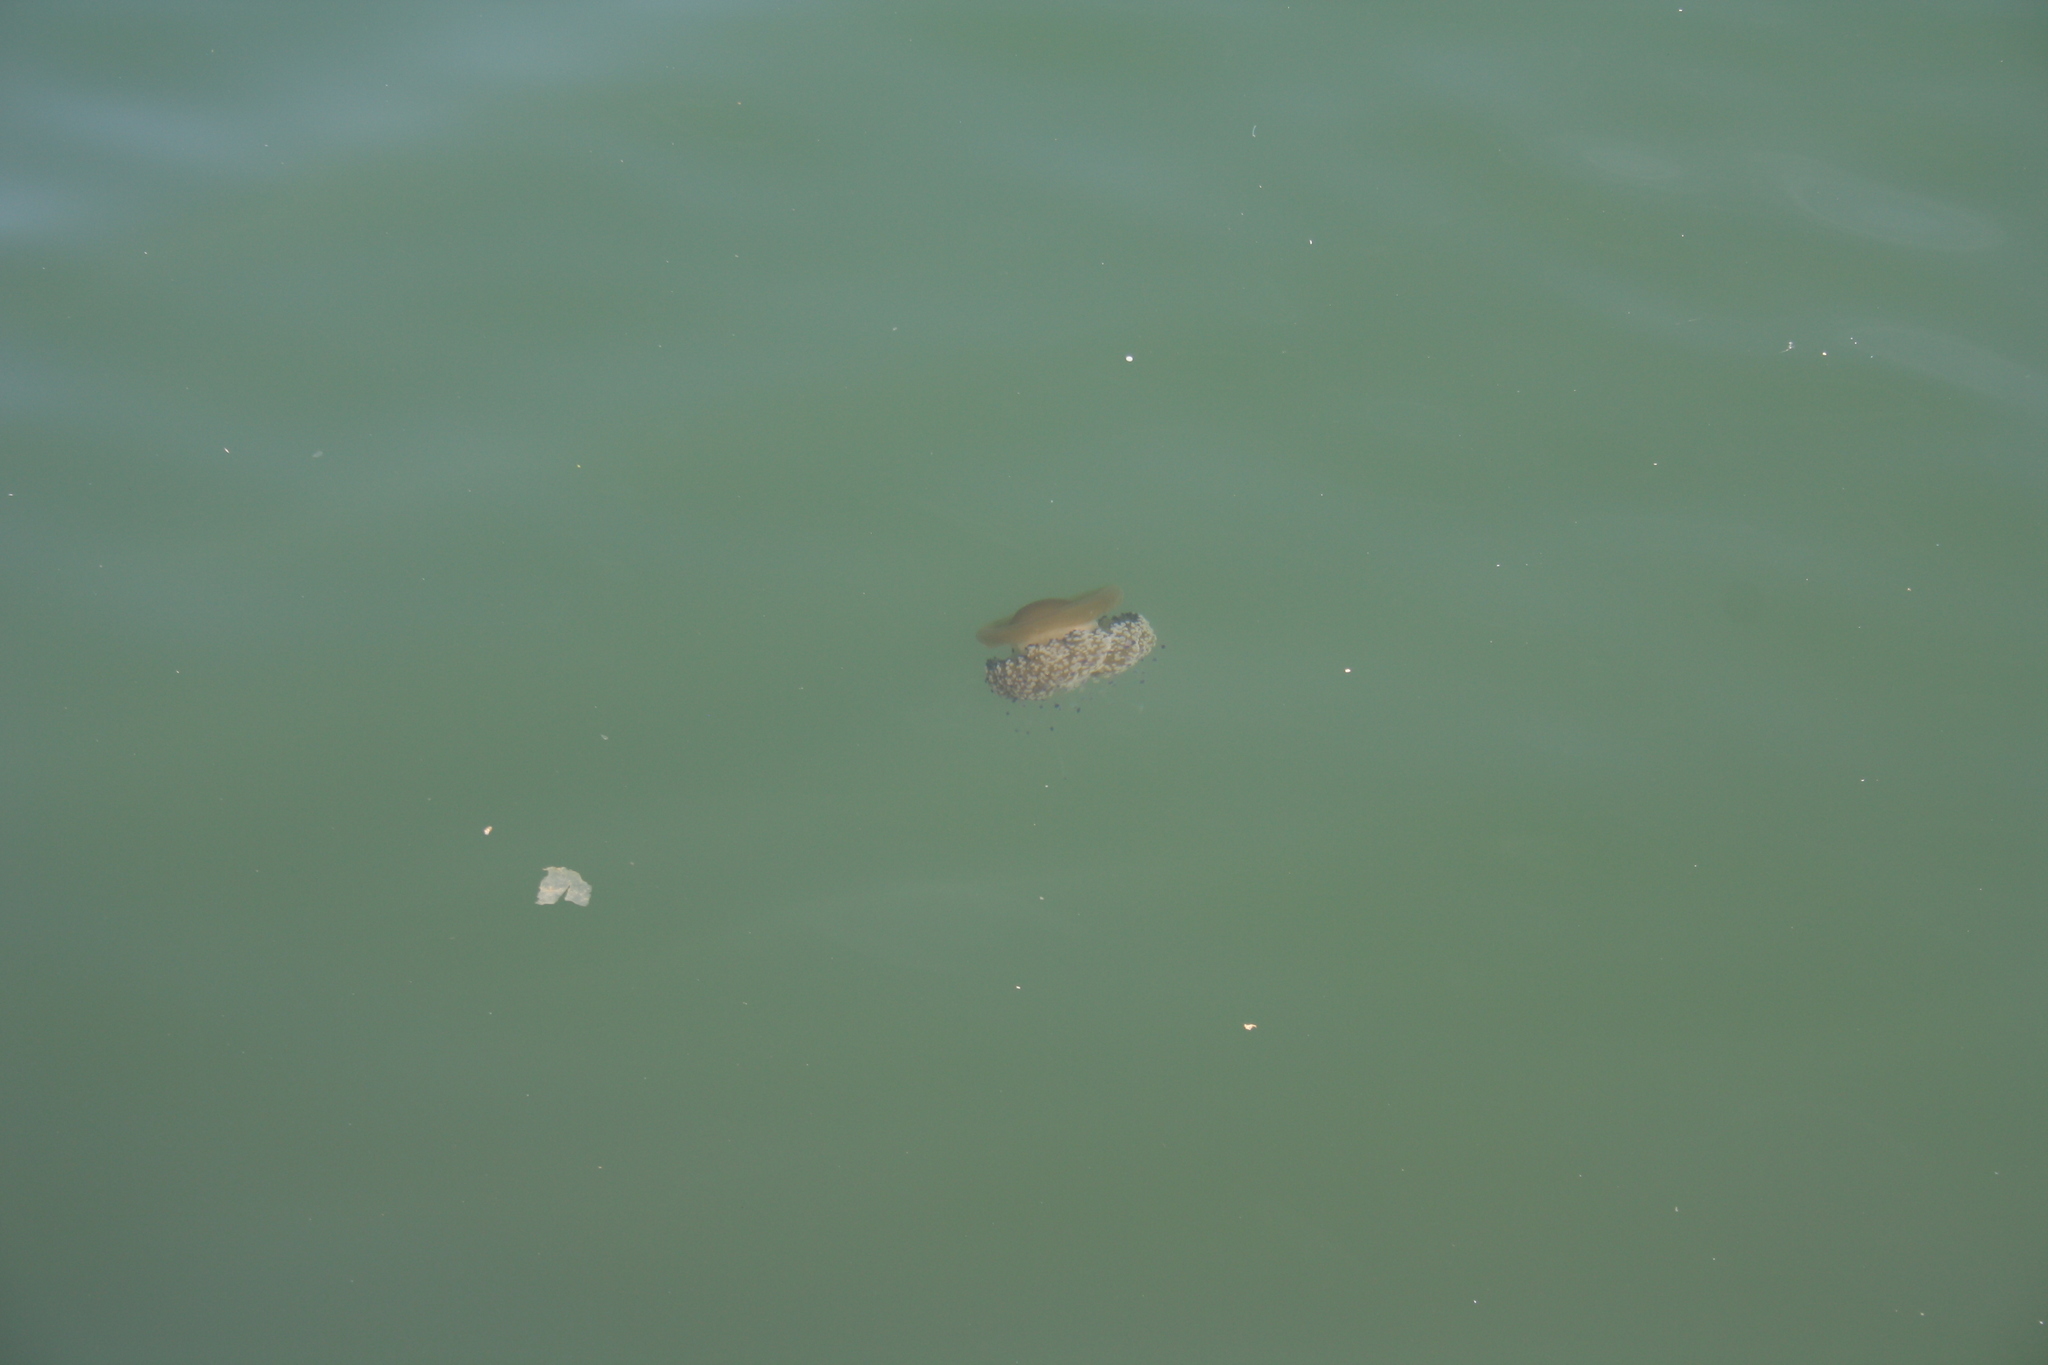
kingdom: Animalia
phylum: Cnidaria
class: Scyphozoa
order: Rhizostomeae
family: Cepheidae
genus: Cotylorhiza
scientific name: Cotylorhiza tuberculata
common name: Mediterranean jelly
